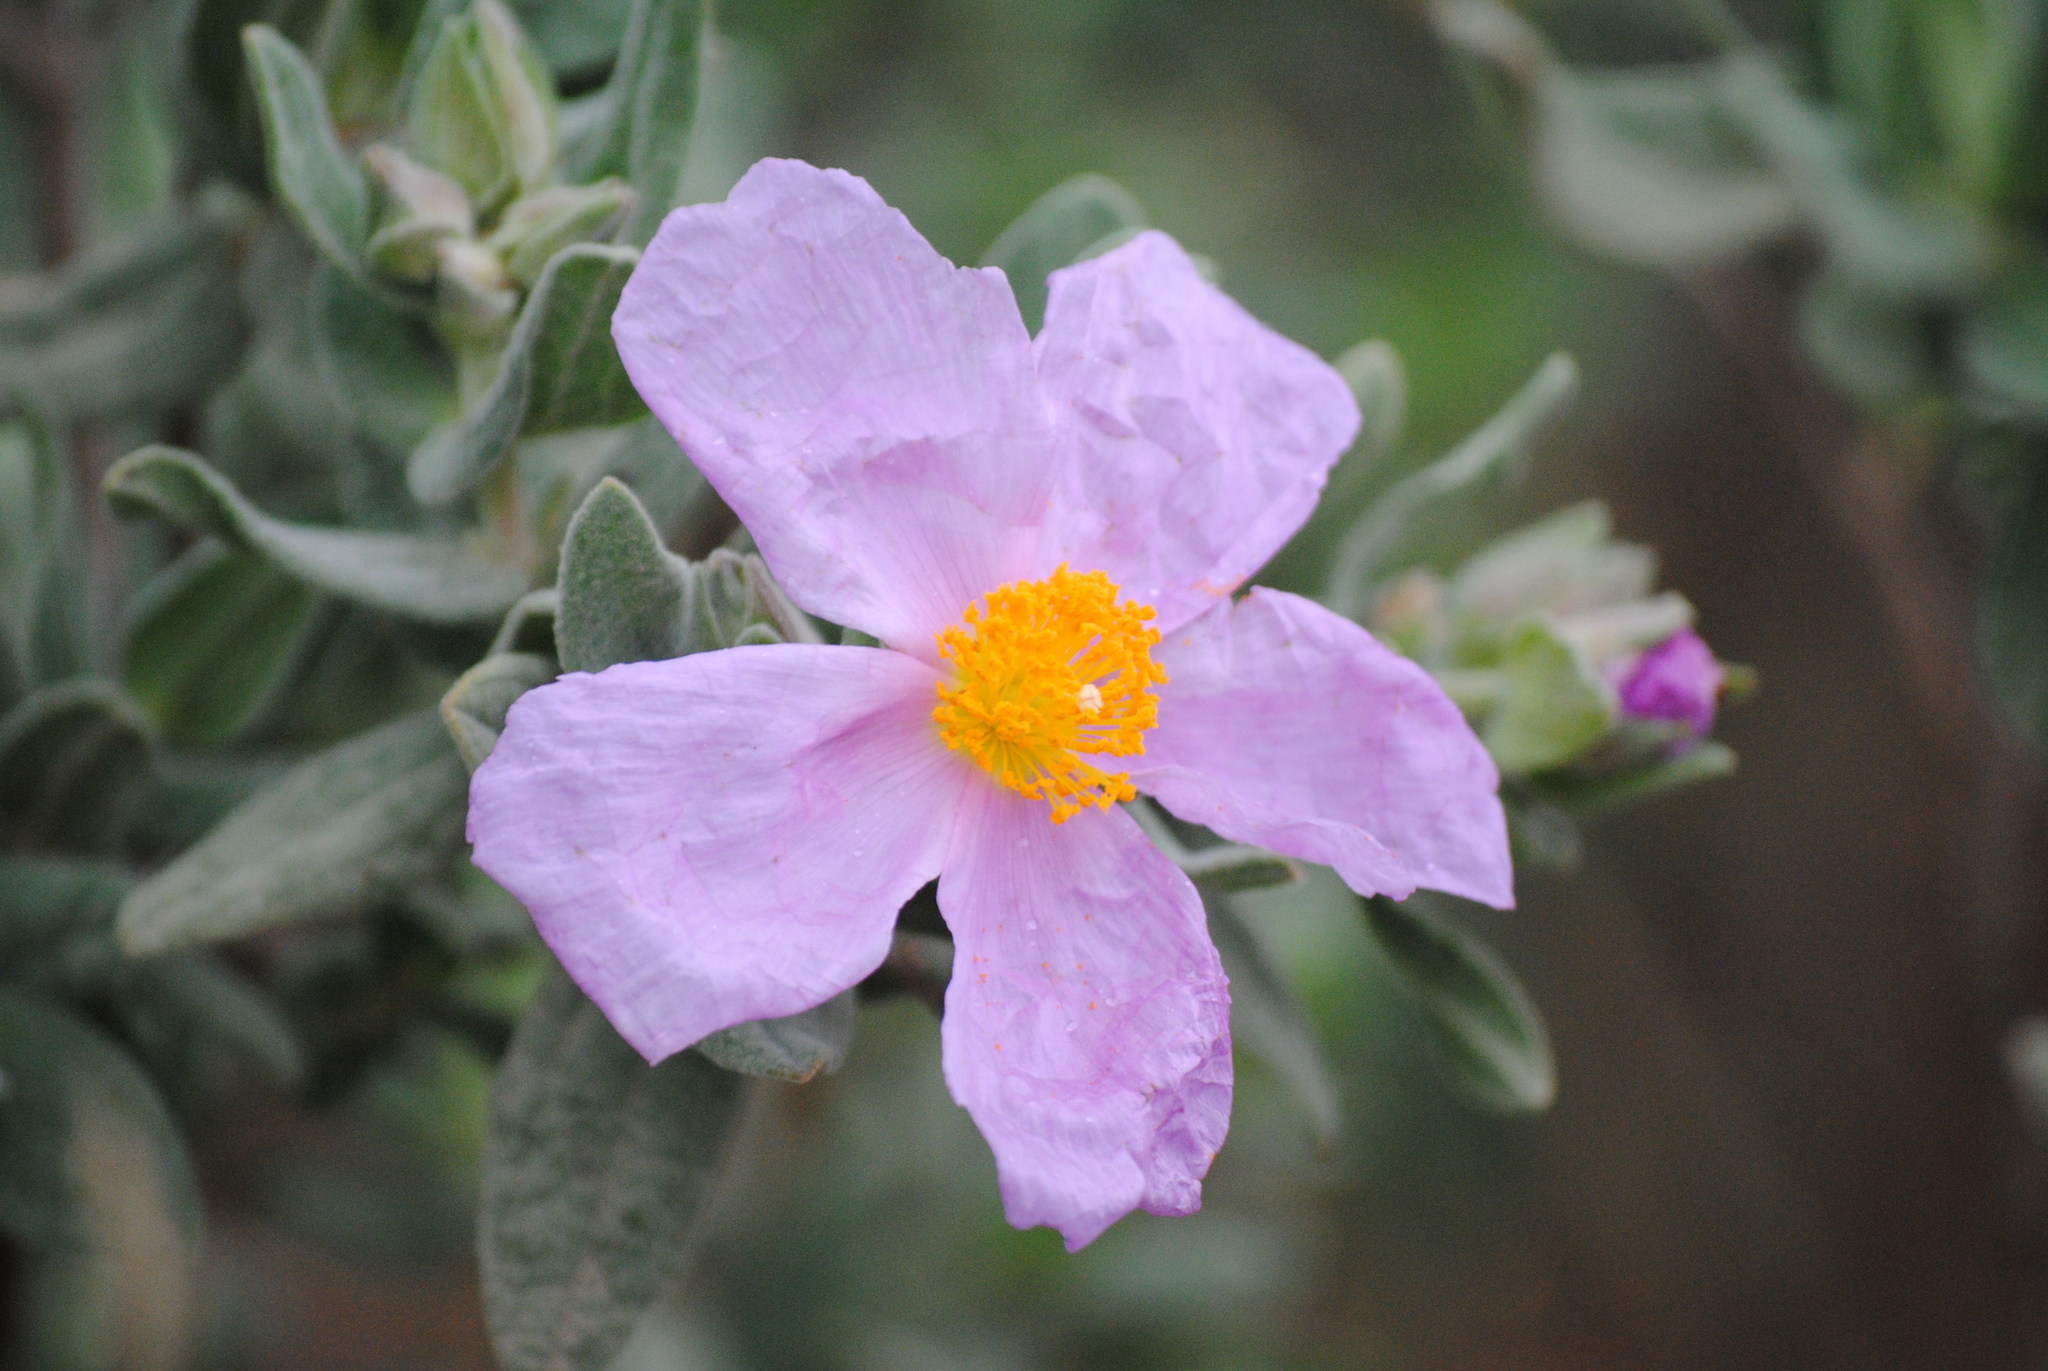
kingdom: Plantae
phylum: Tracheophyta
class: Magnoliopsida
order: Malvales
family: Cistaceae
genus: Cistus
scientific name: Cistus albidus
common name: White-leaf rock-rose
